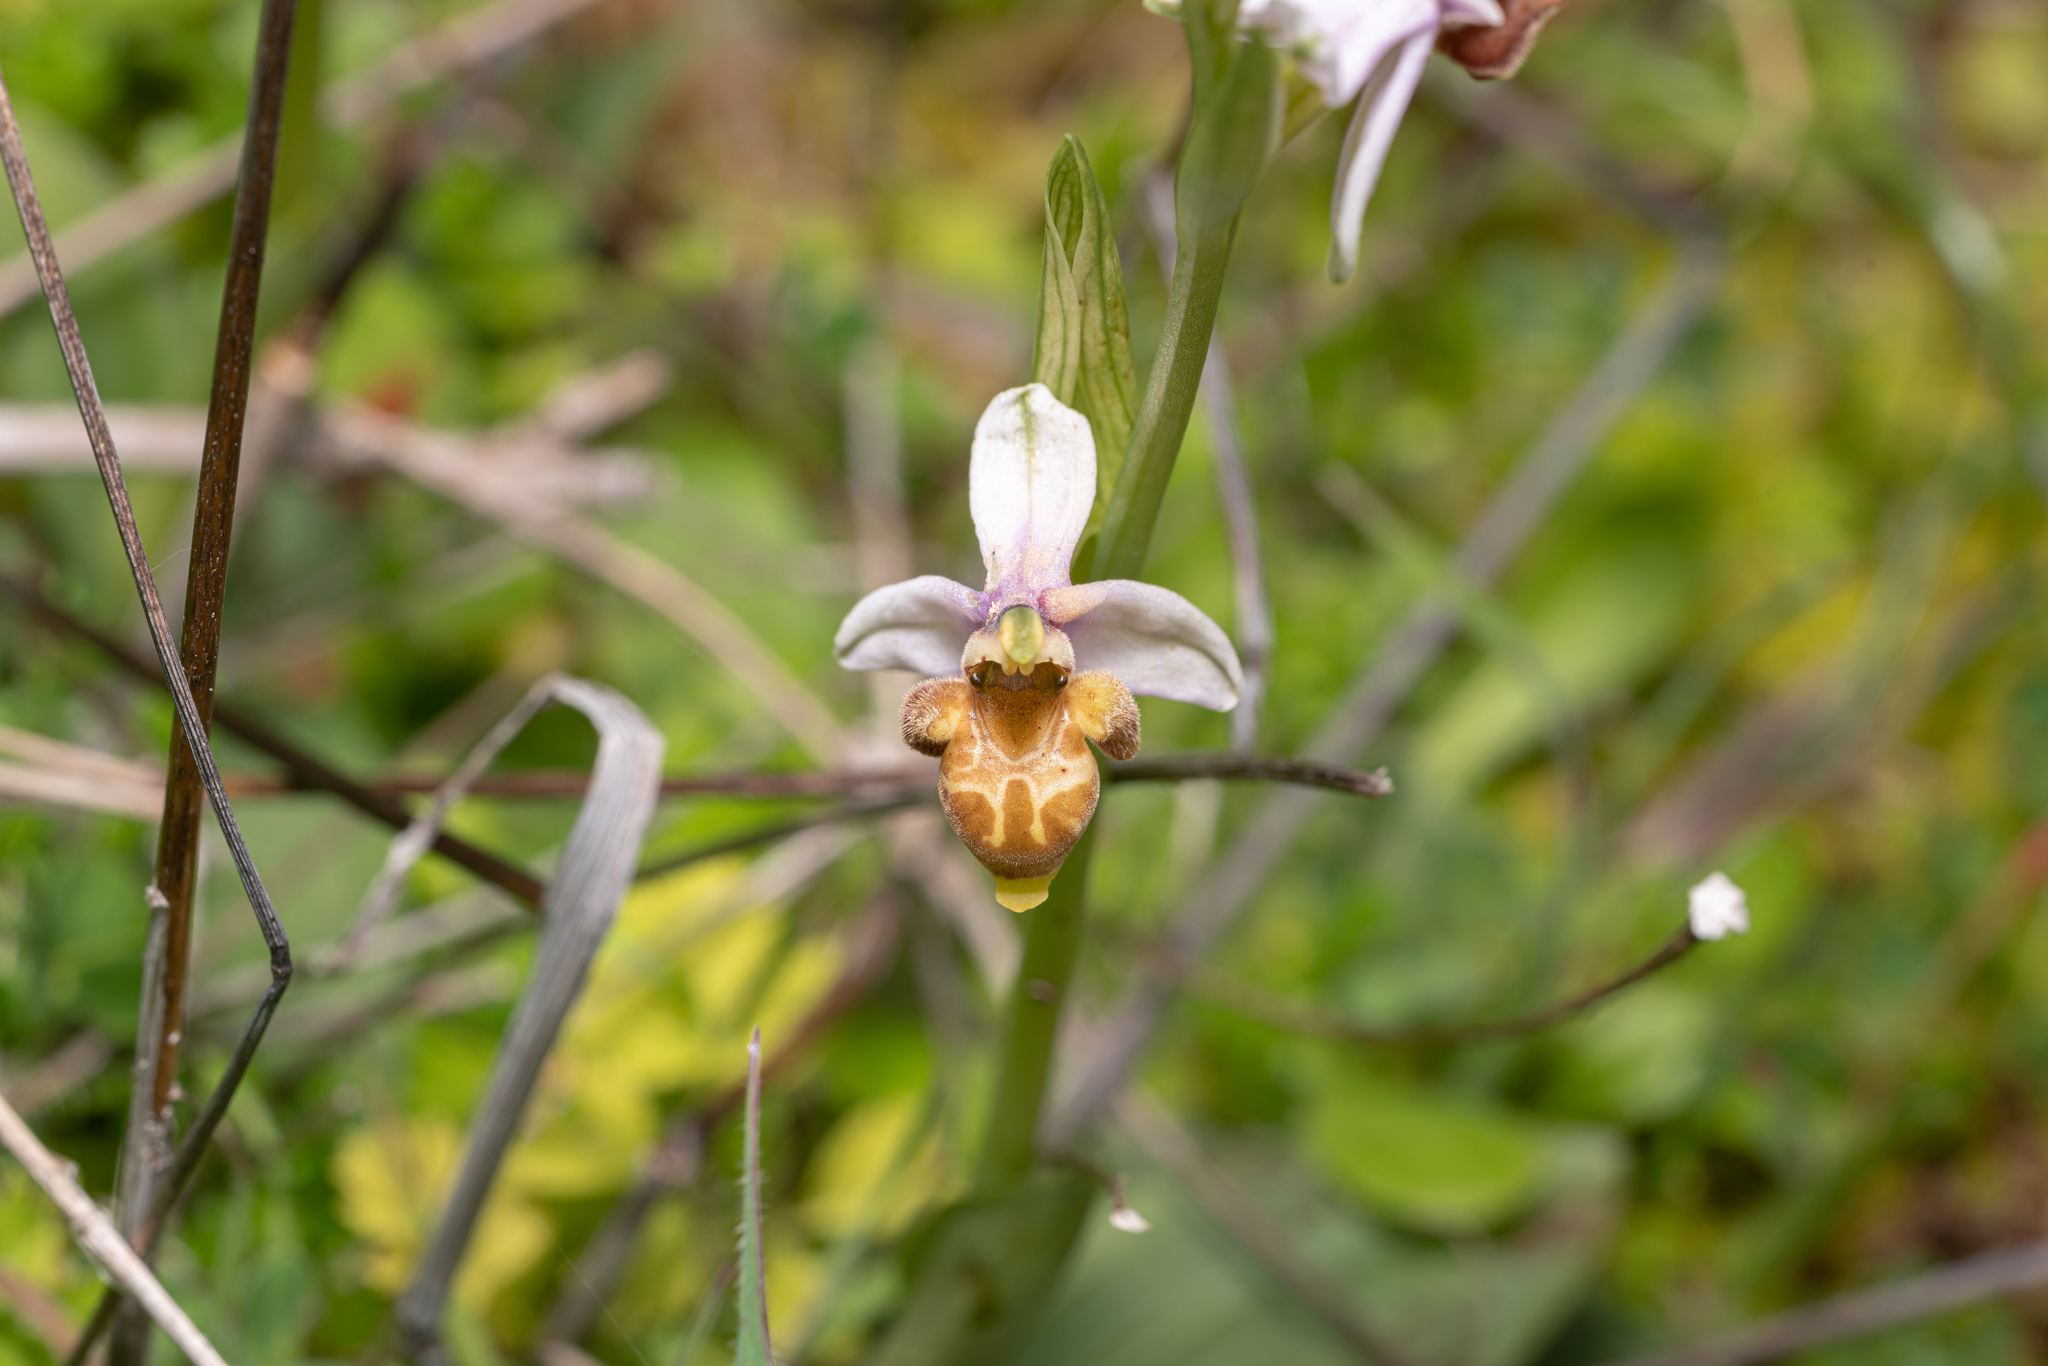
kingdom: Plantae
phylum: Tracheophyta
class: Liliopsida
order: Asparagales
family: Orchidaceae
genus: Ophrys
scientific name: Ophrys vicina
